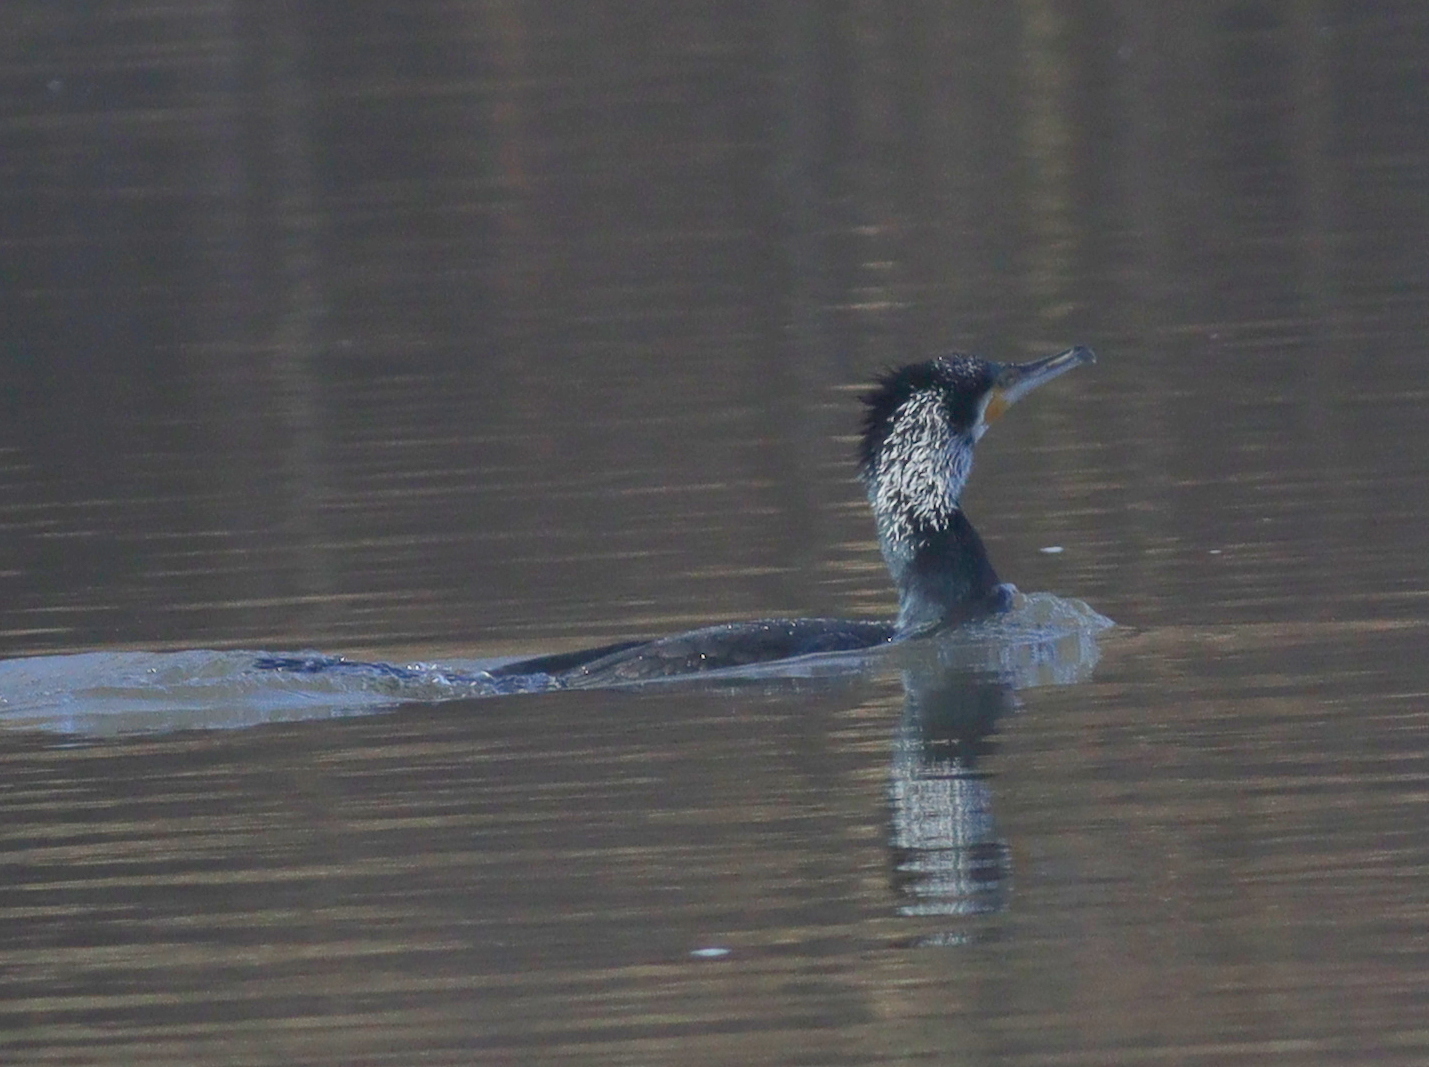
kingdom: Animalia
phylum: Chordata
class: Aves
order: Suliformes
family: Phalacrocoracidae
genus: Phalacrocorax
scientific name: Phalacrocorax carbo
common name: Great cormorant
